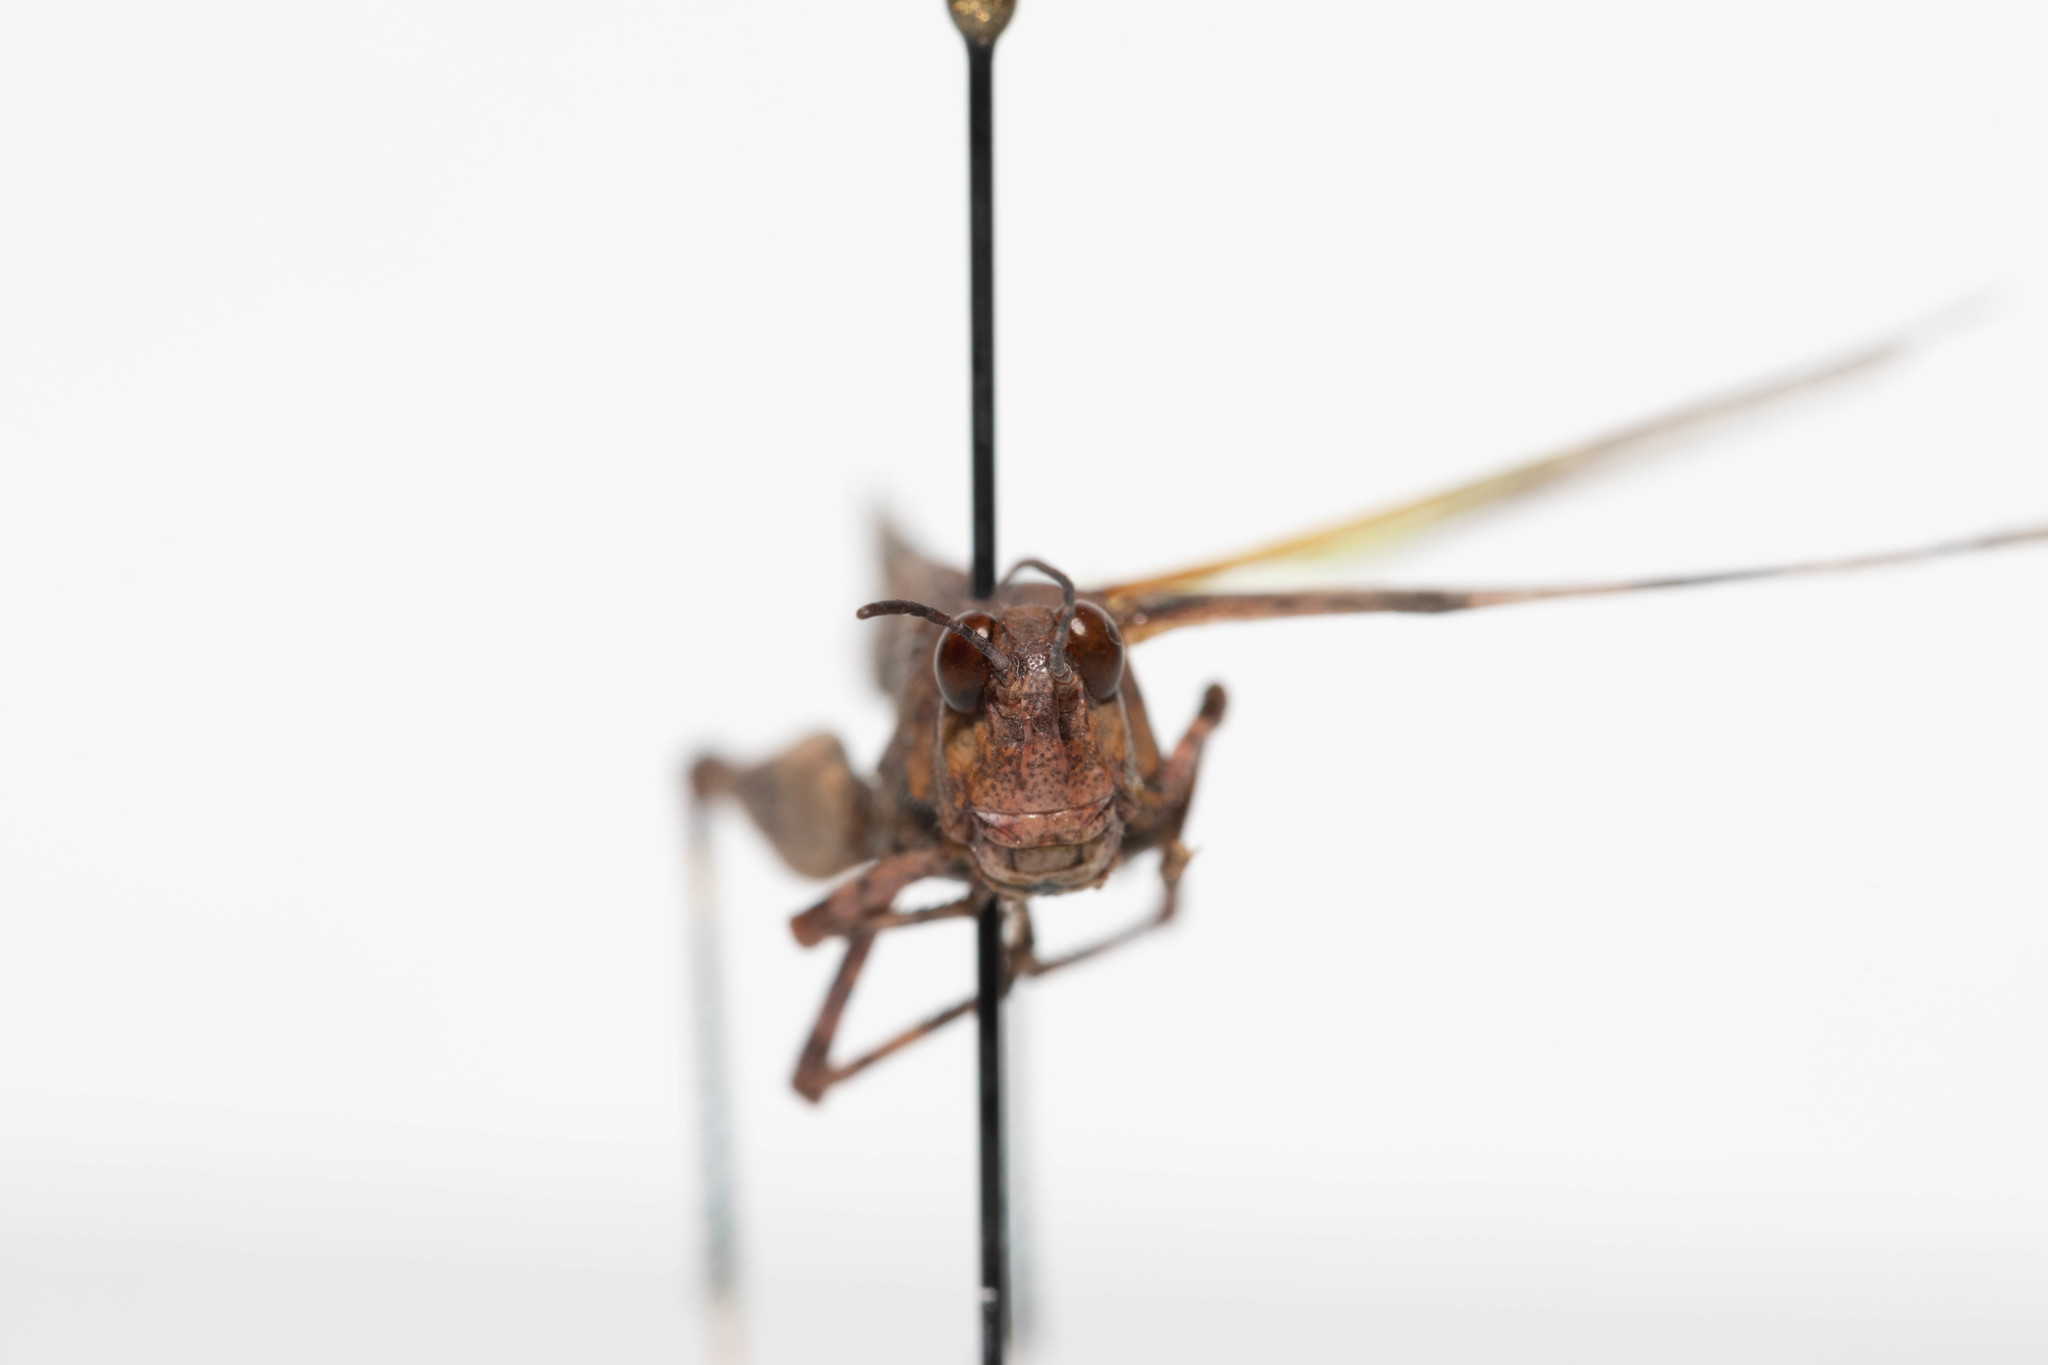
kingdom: Animalia
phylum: Arthropoda
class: Insecta
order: Orthoptera
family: Acrididae
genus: Trimerotropis
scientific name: Trimerotropis fontana
